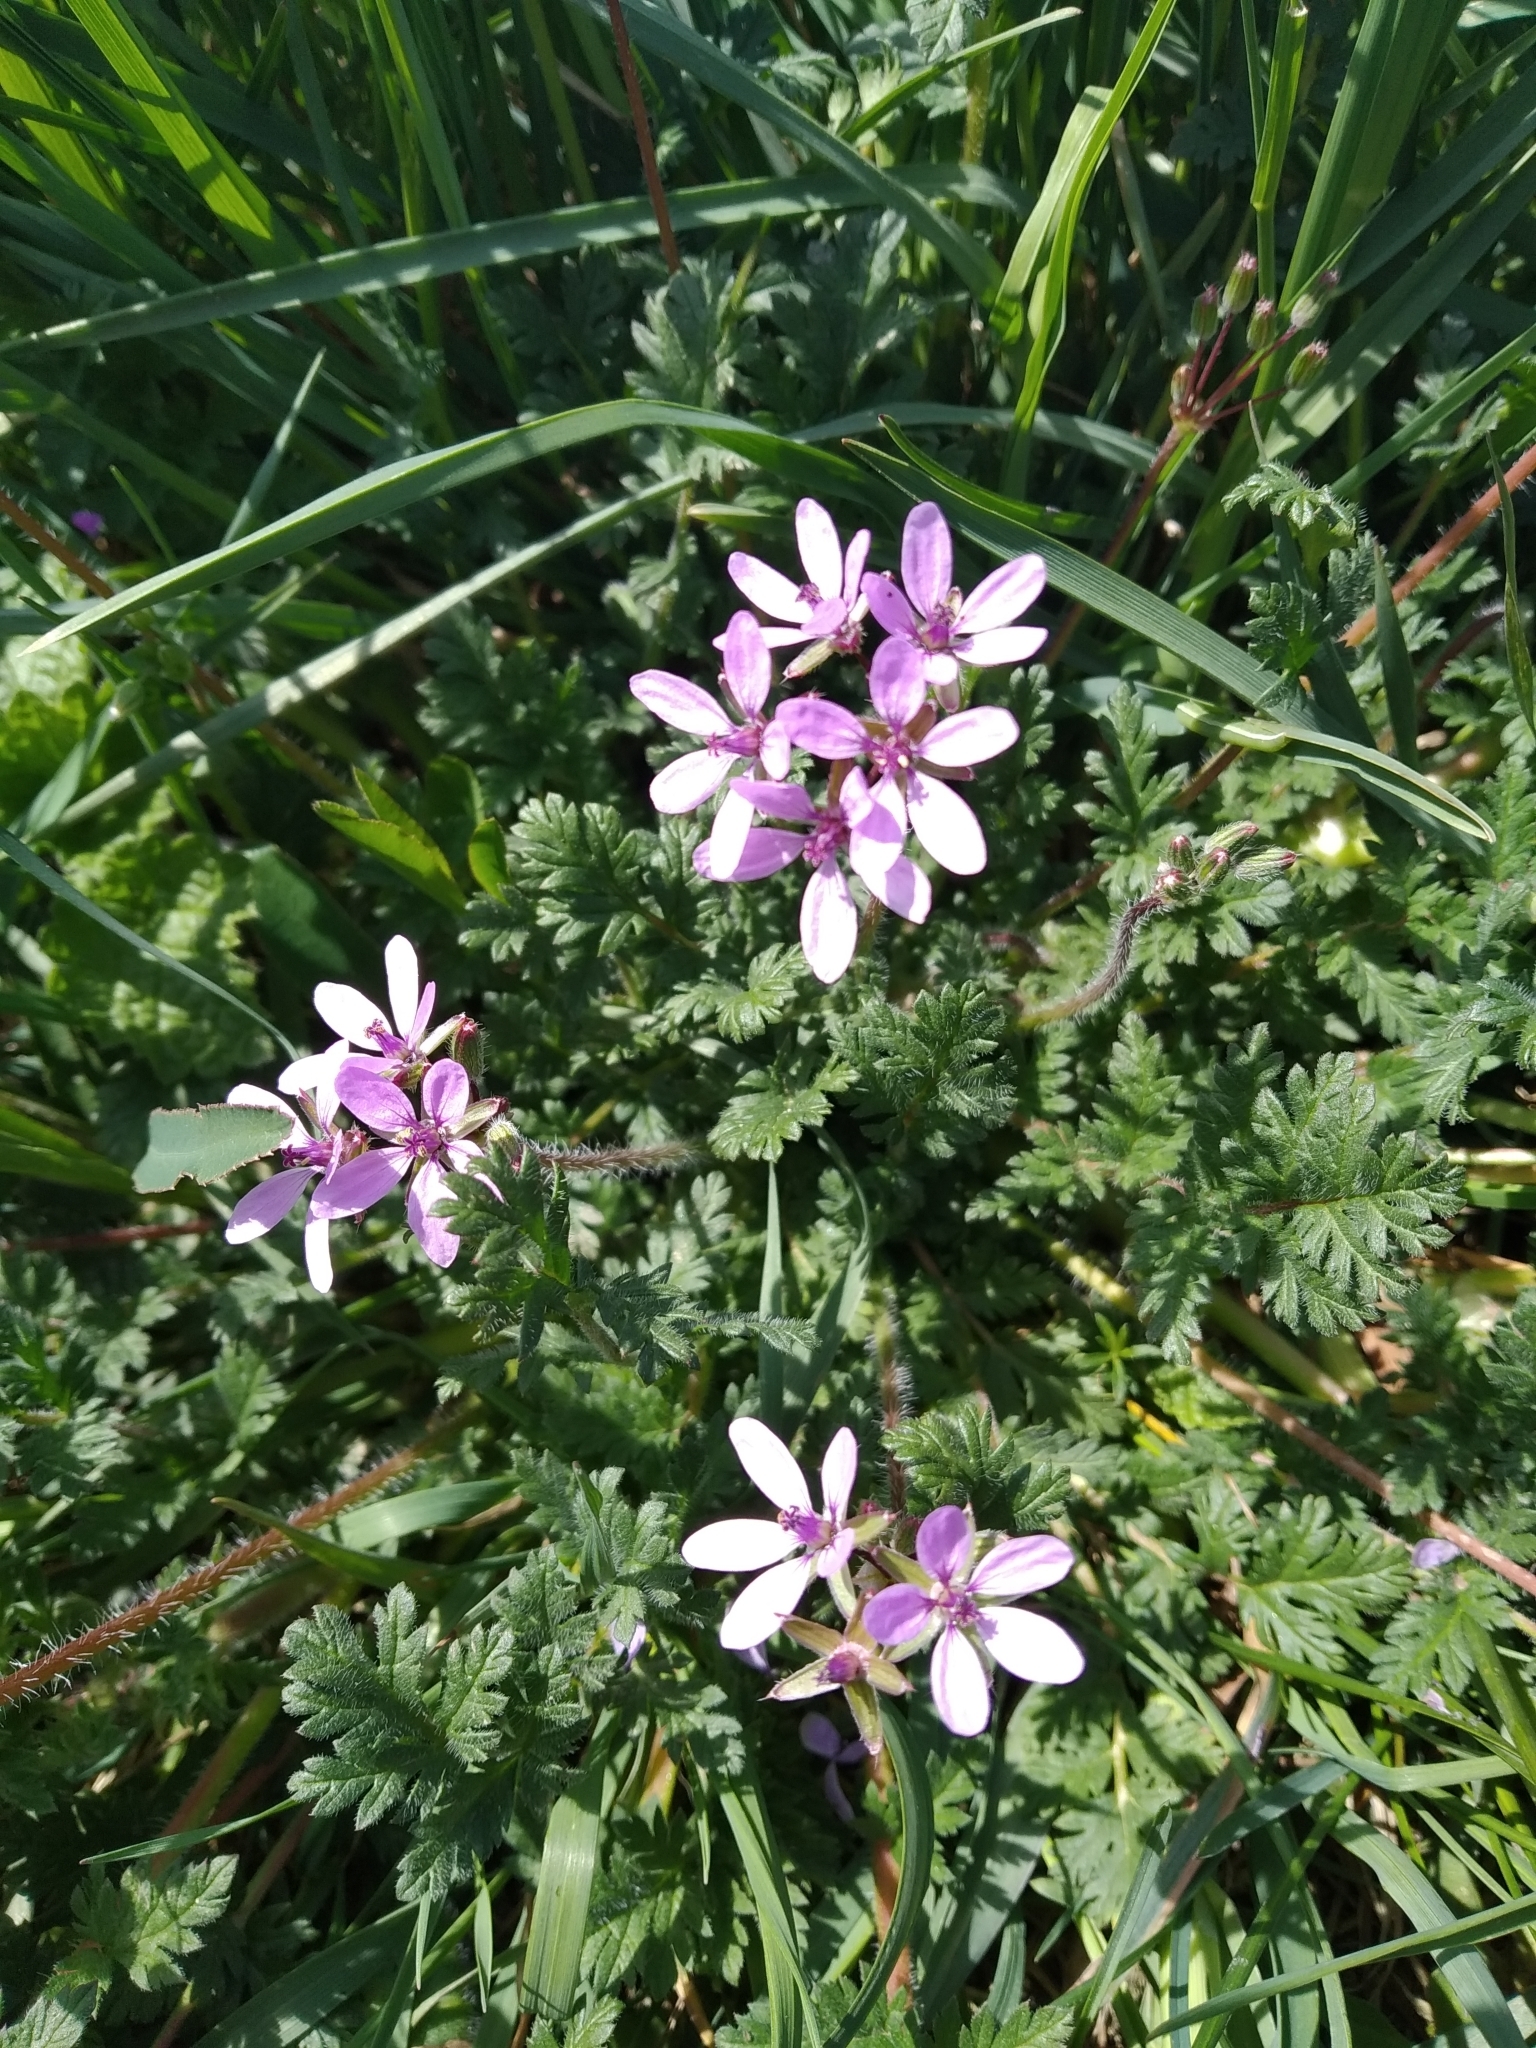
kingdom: Plantae
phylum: Tracheophyta
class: Magnoliopsida
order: Geraniales
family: Geraniaceae
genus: Erodium
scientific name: Erodium cicutarium
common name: Common stork's-bill
